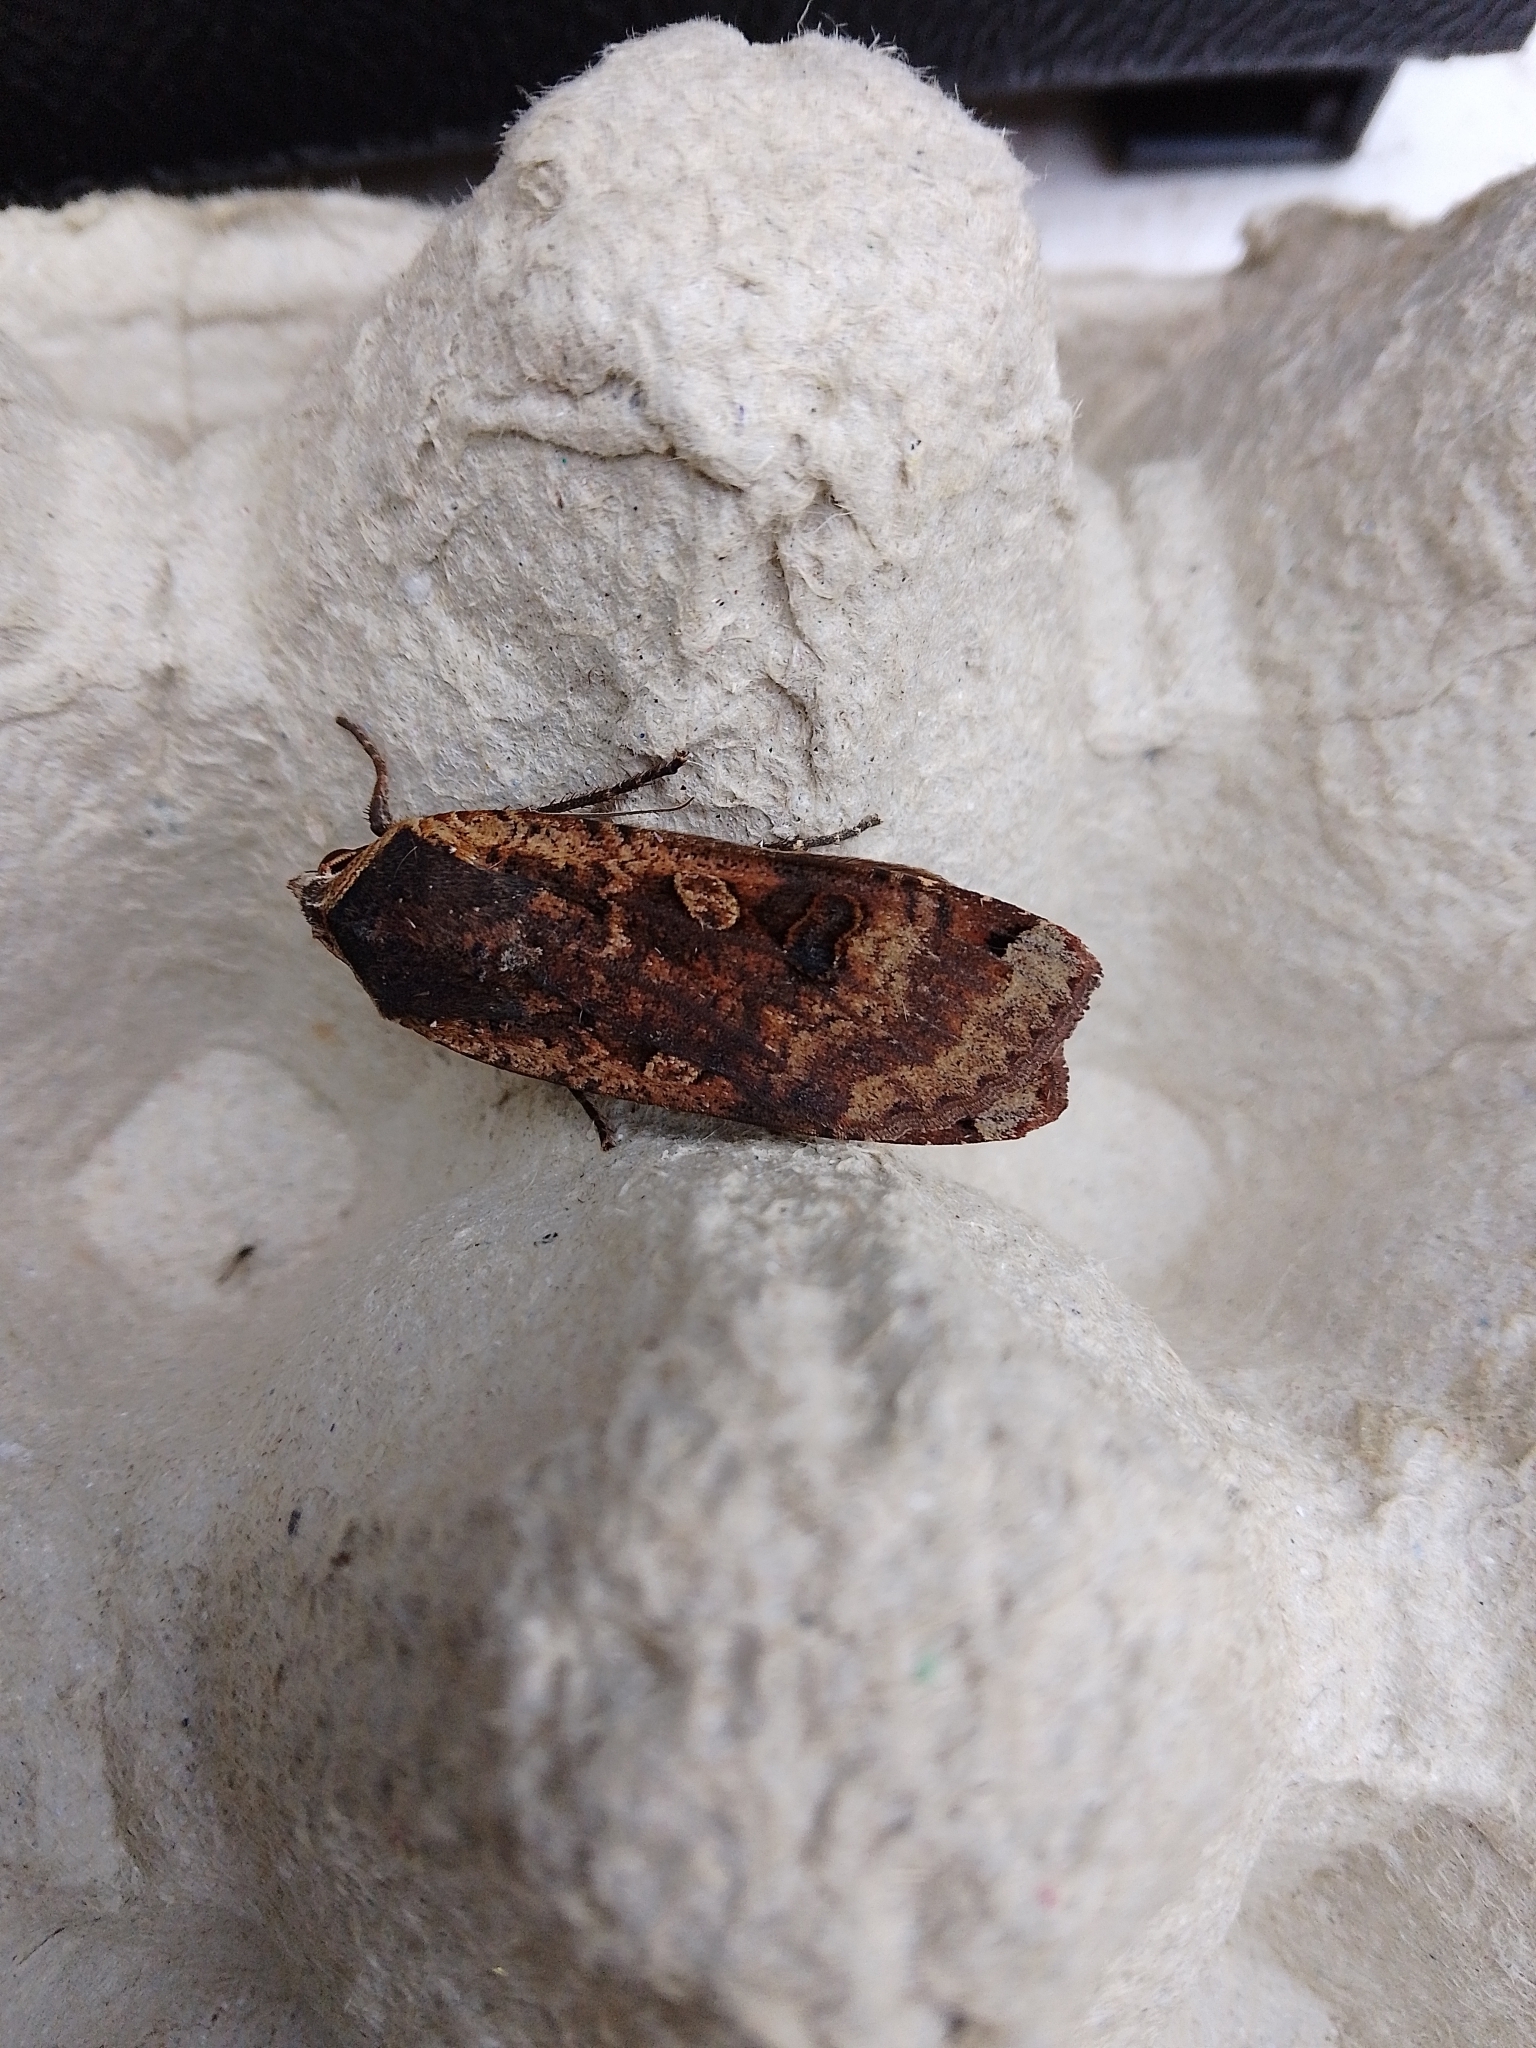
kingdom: Animalia
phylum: Arthropoda
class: Insecta
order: Lepidoptera
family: Noctuidae
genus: Noctua
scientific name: Noctua pronuba
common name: Large yellow underwing
